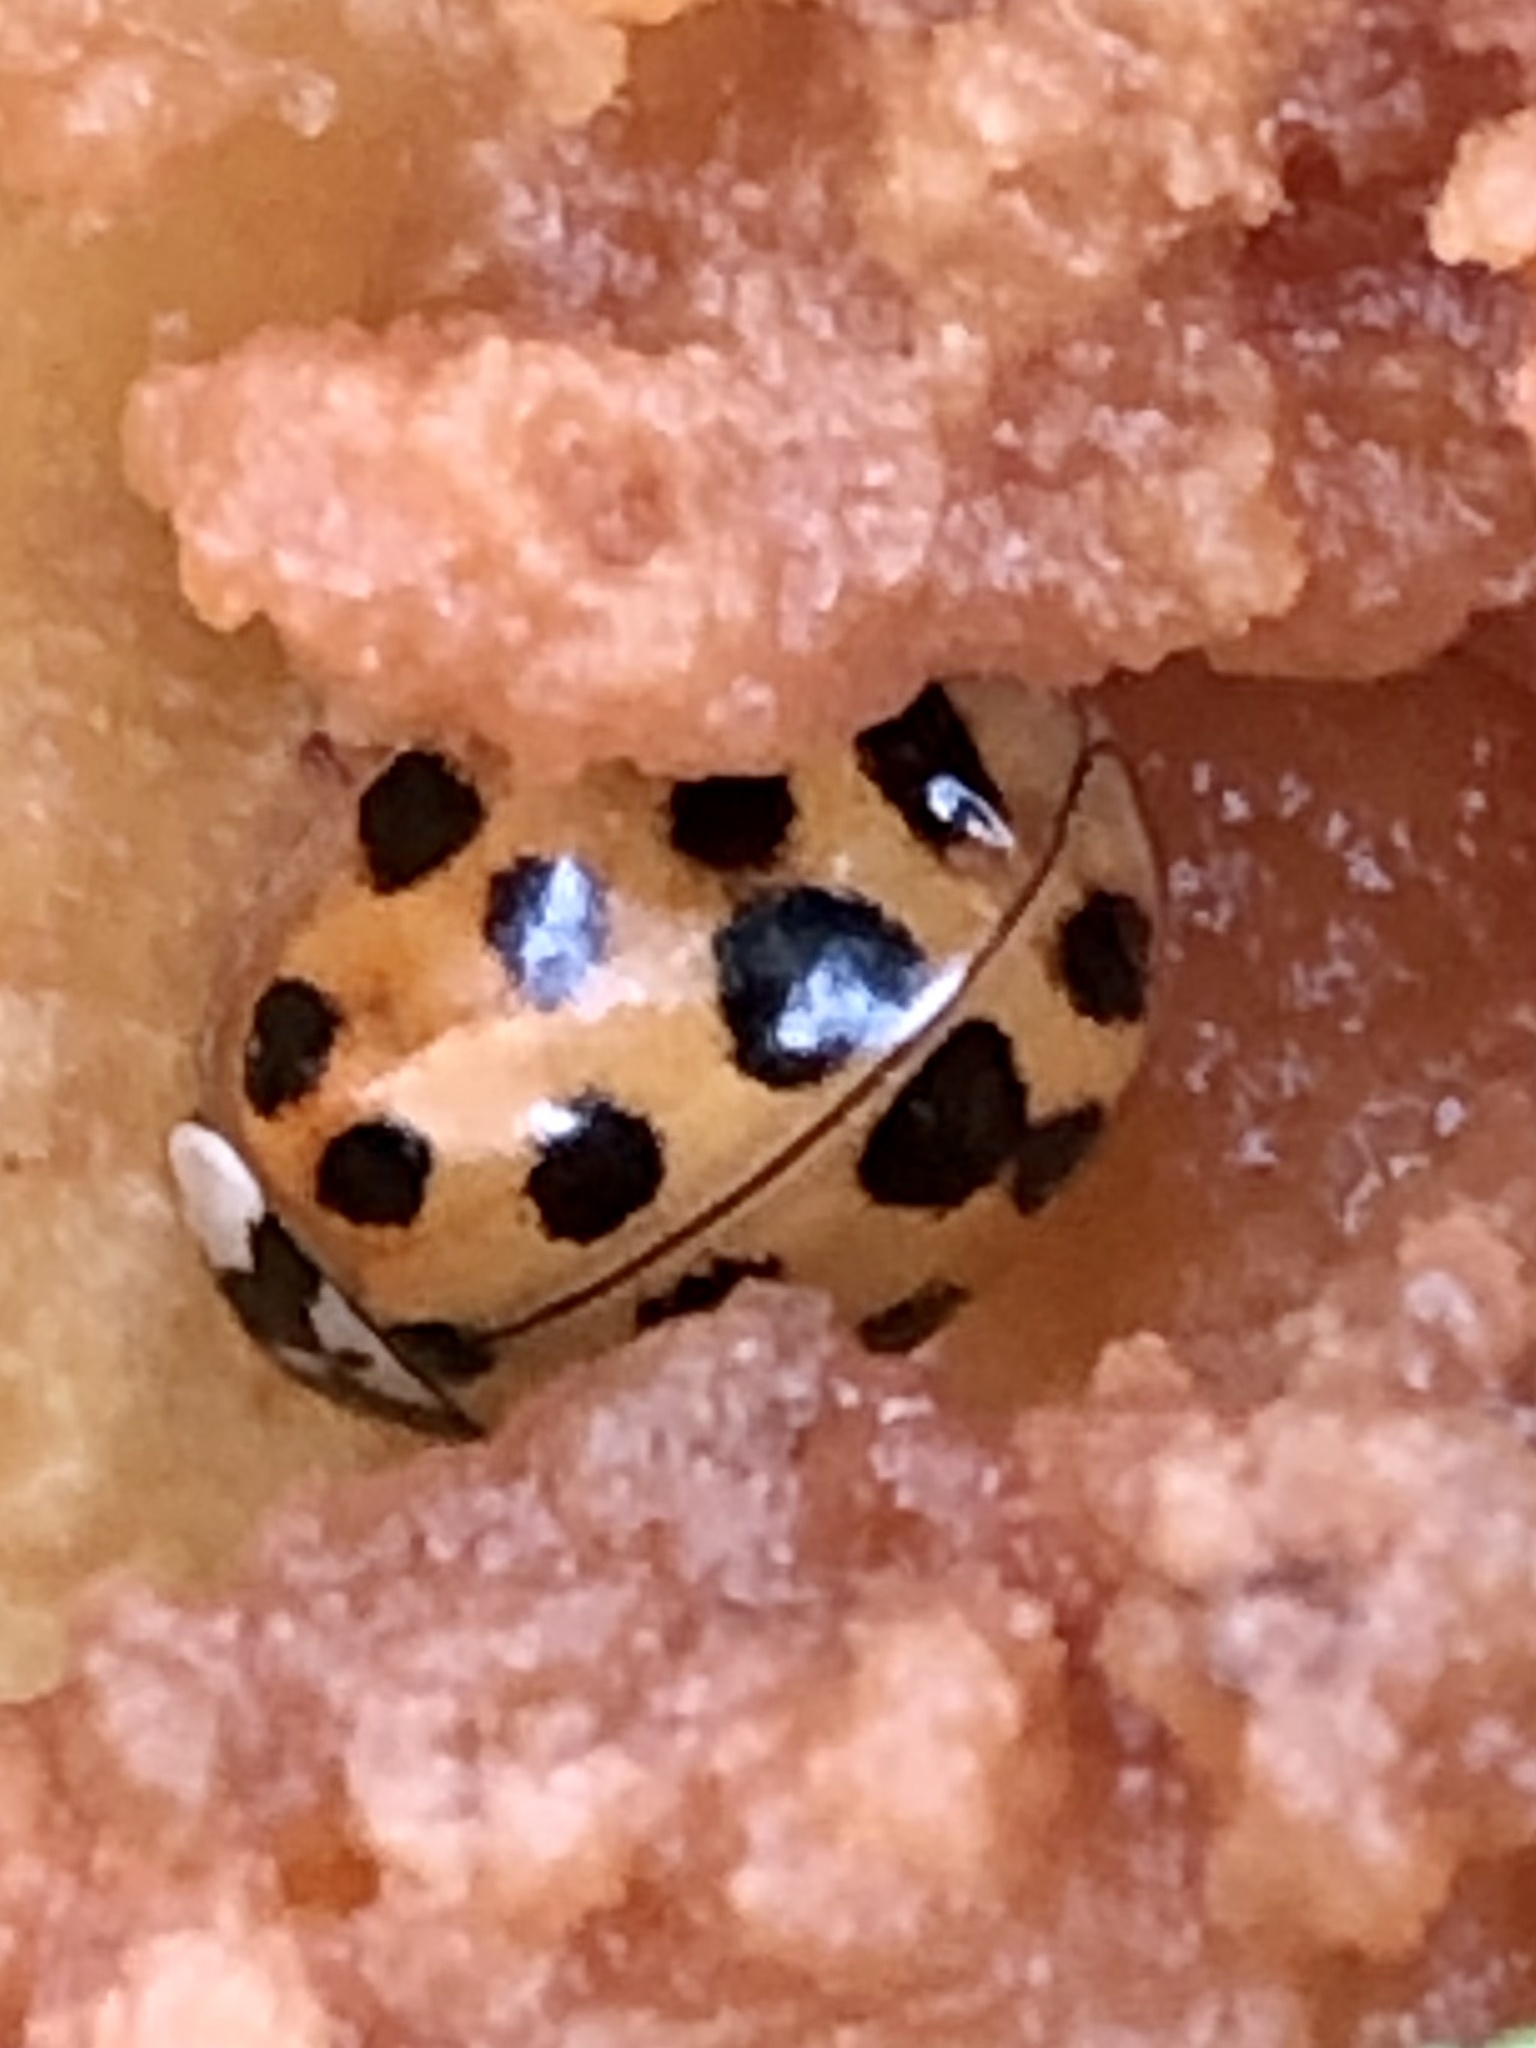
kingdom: Animalia
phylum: Arthropoda
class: Insecta
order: Coleoptera
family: Coccinellidae
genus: Harmonia
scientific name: Harmonia axyridis
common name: Harlequin ladybird
